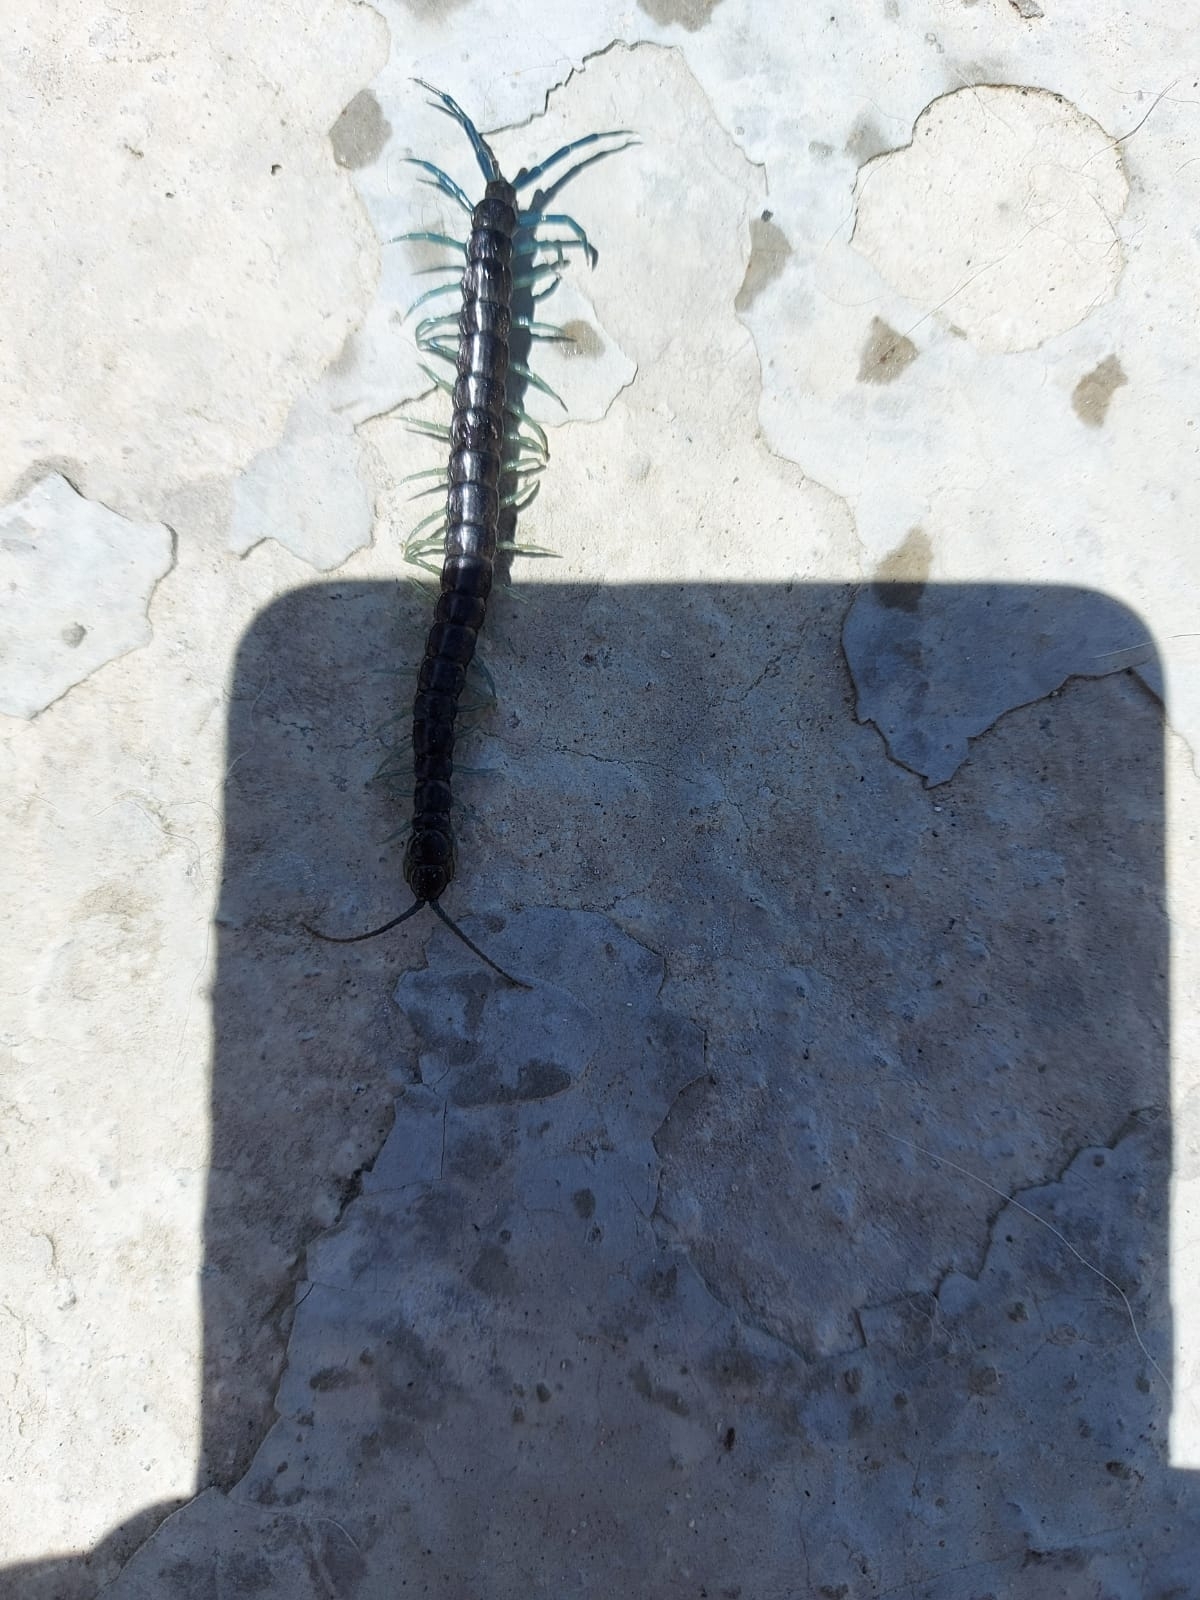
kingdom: Animalia
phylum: Arthropoda
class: Chilopoda
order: Scolopendromorpha
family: Scolopendridae
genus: Otostigmus
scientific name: Otostigmus silvestrii
